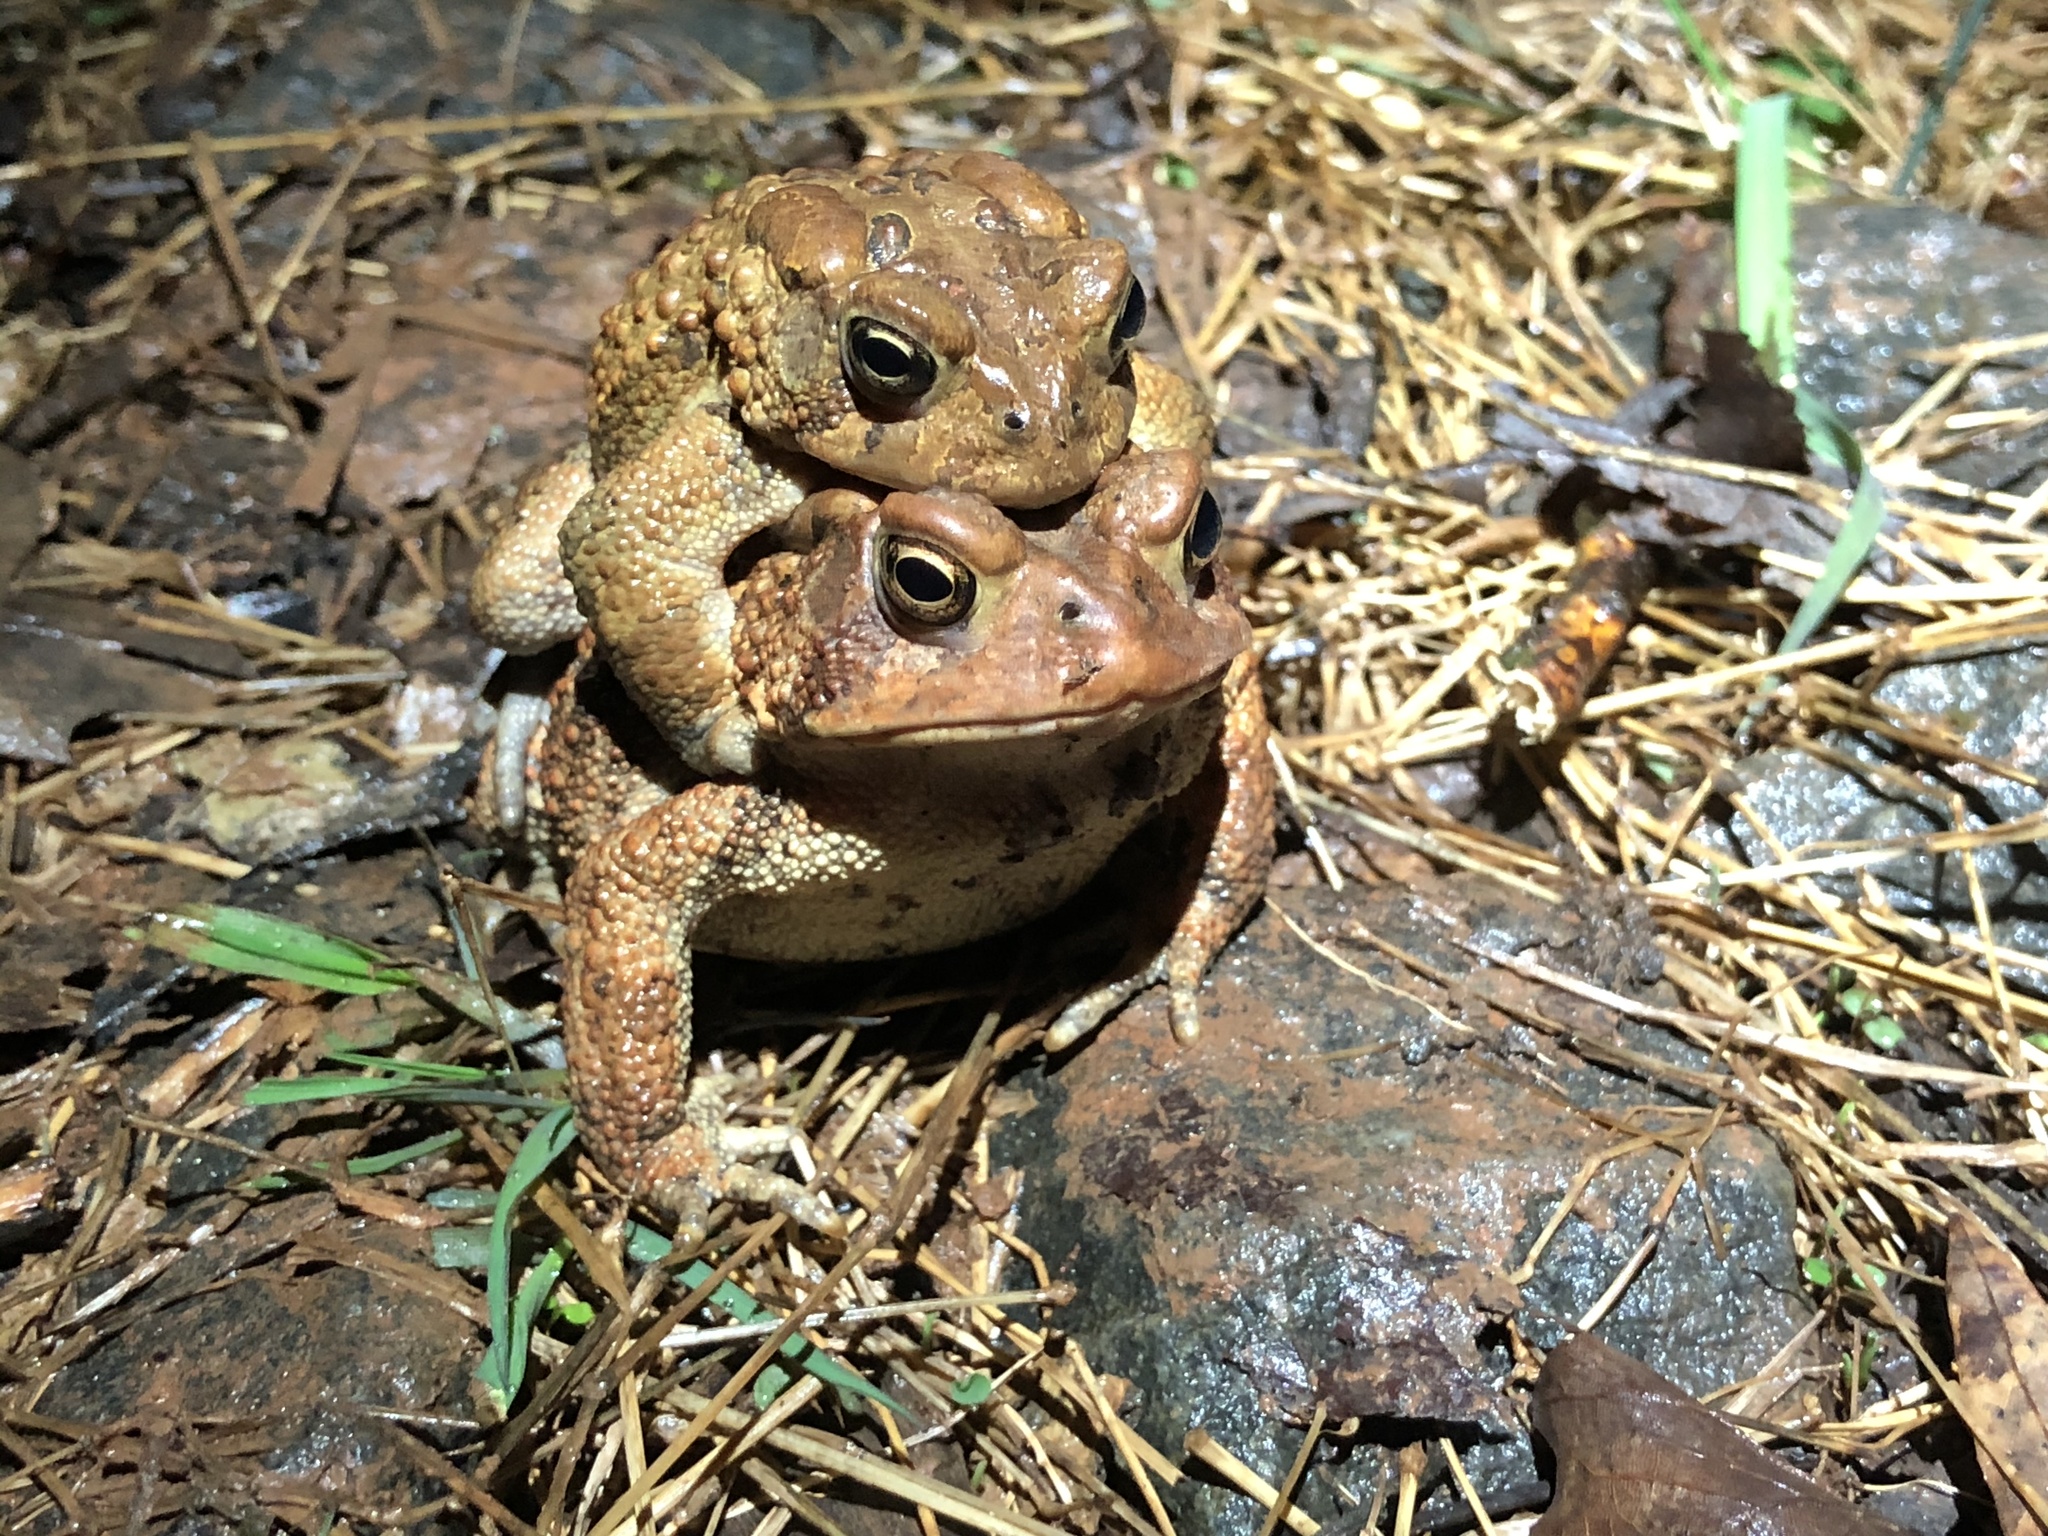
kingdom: Animalia
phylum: Chordata
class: Amphibia
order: Anura
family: Bufonidae
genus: Anaxyrus
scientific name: Anaxyrus americanus
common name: American toad
